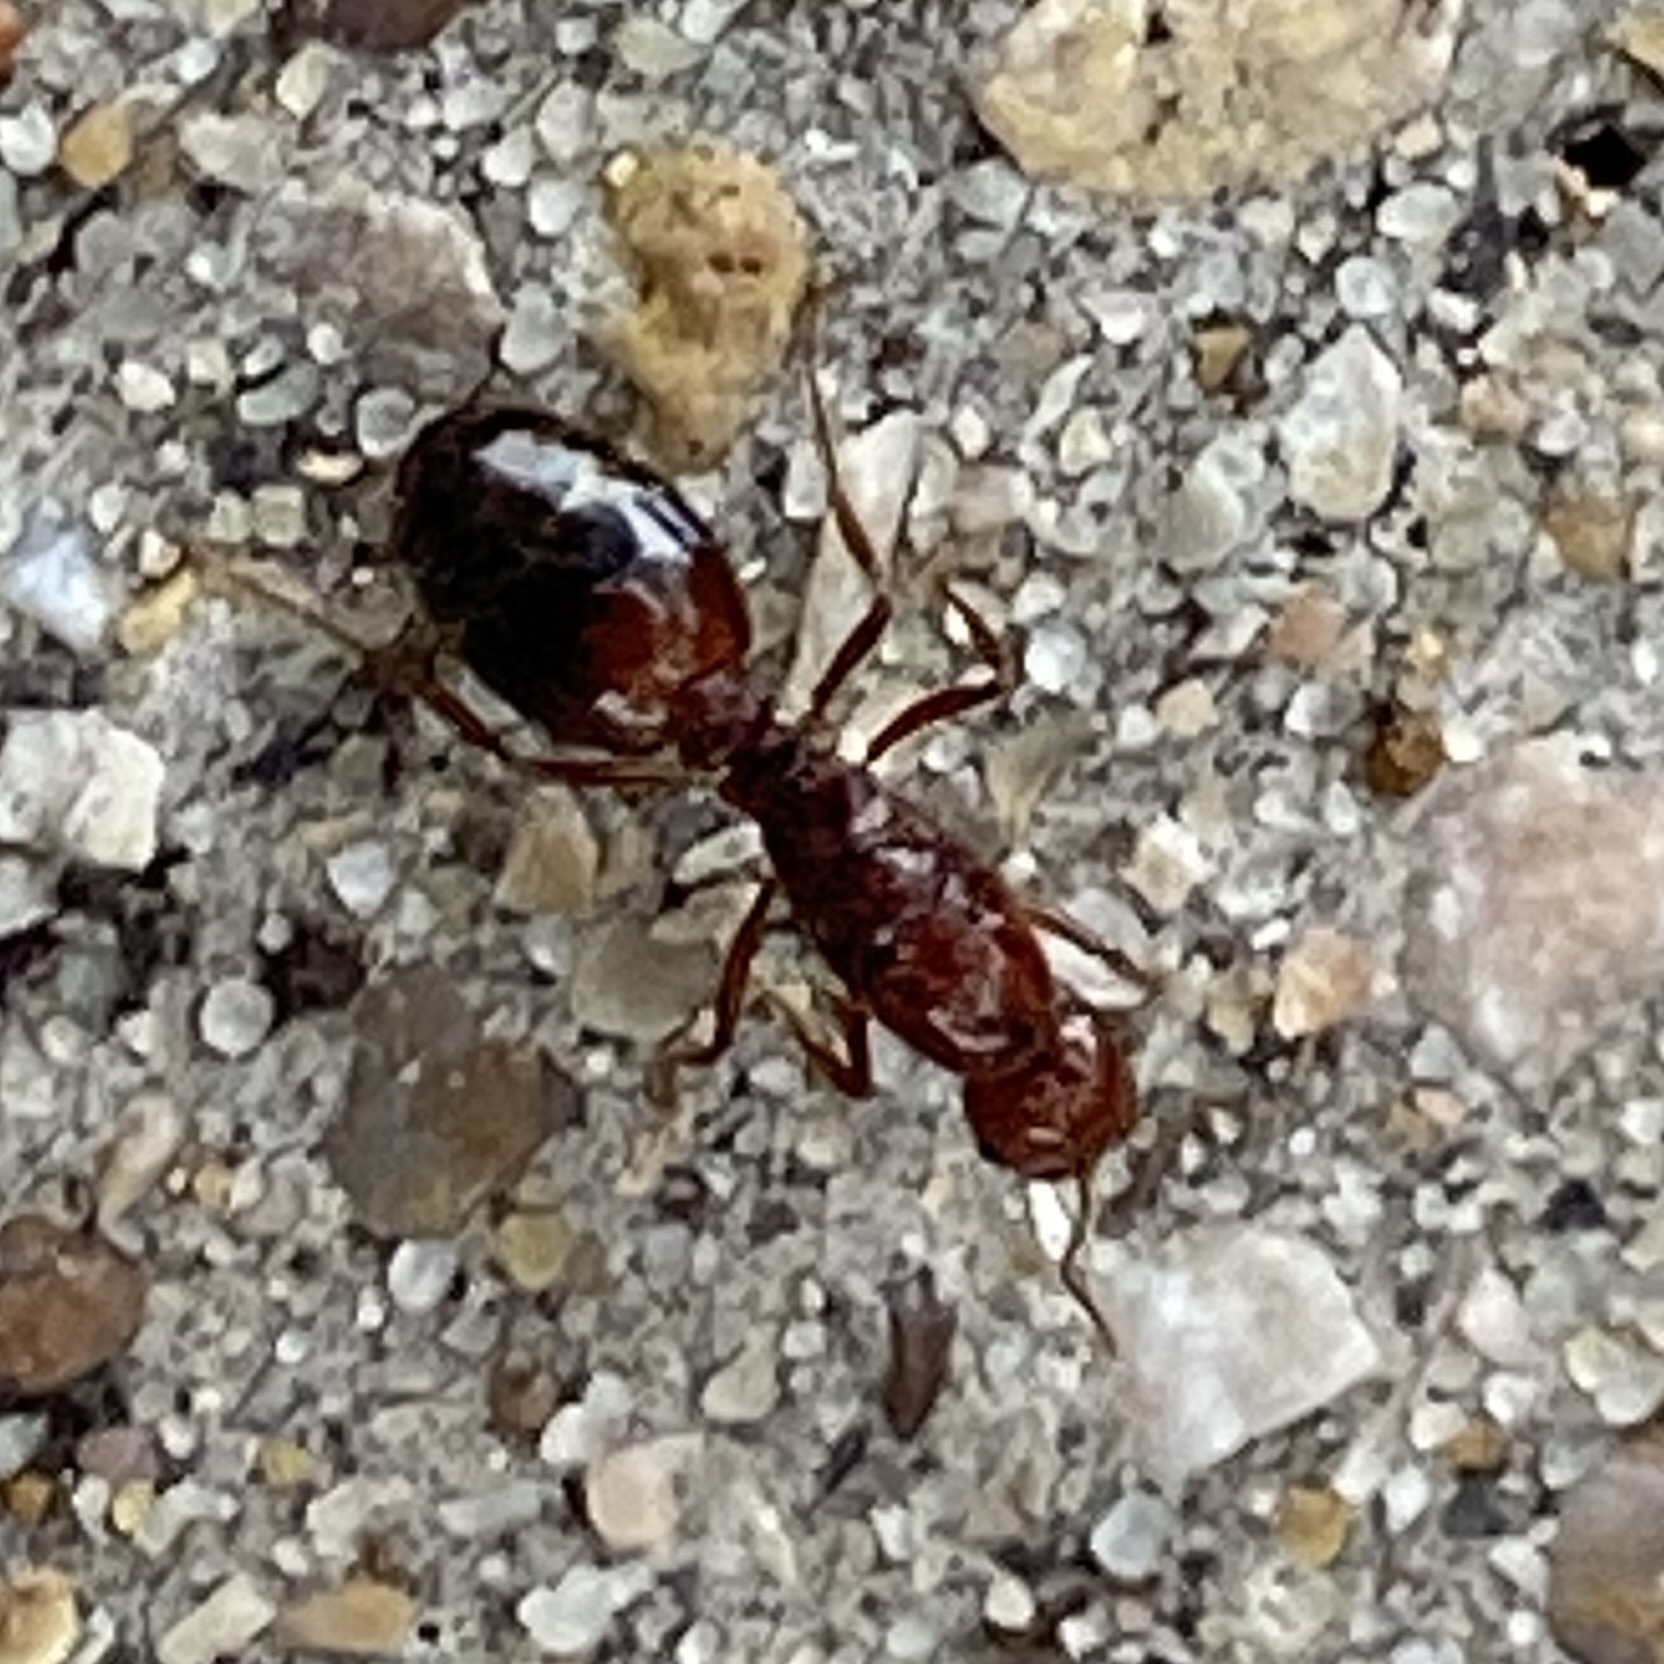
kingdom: Animalia
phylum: Arthropoda
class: Insecta
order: Hymenoptera
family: Formicidae
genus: Solenopsis
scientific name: Solenopsis invicta
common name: Red imported fire ant
